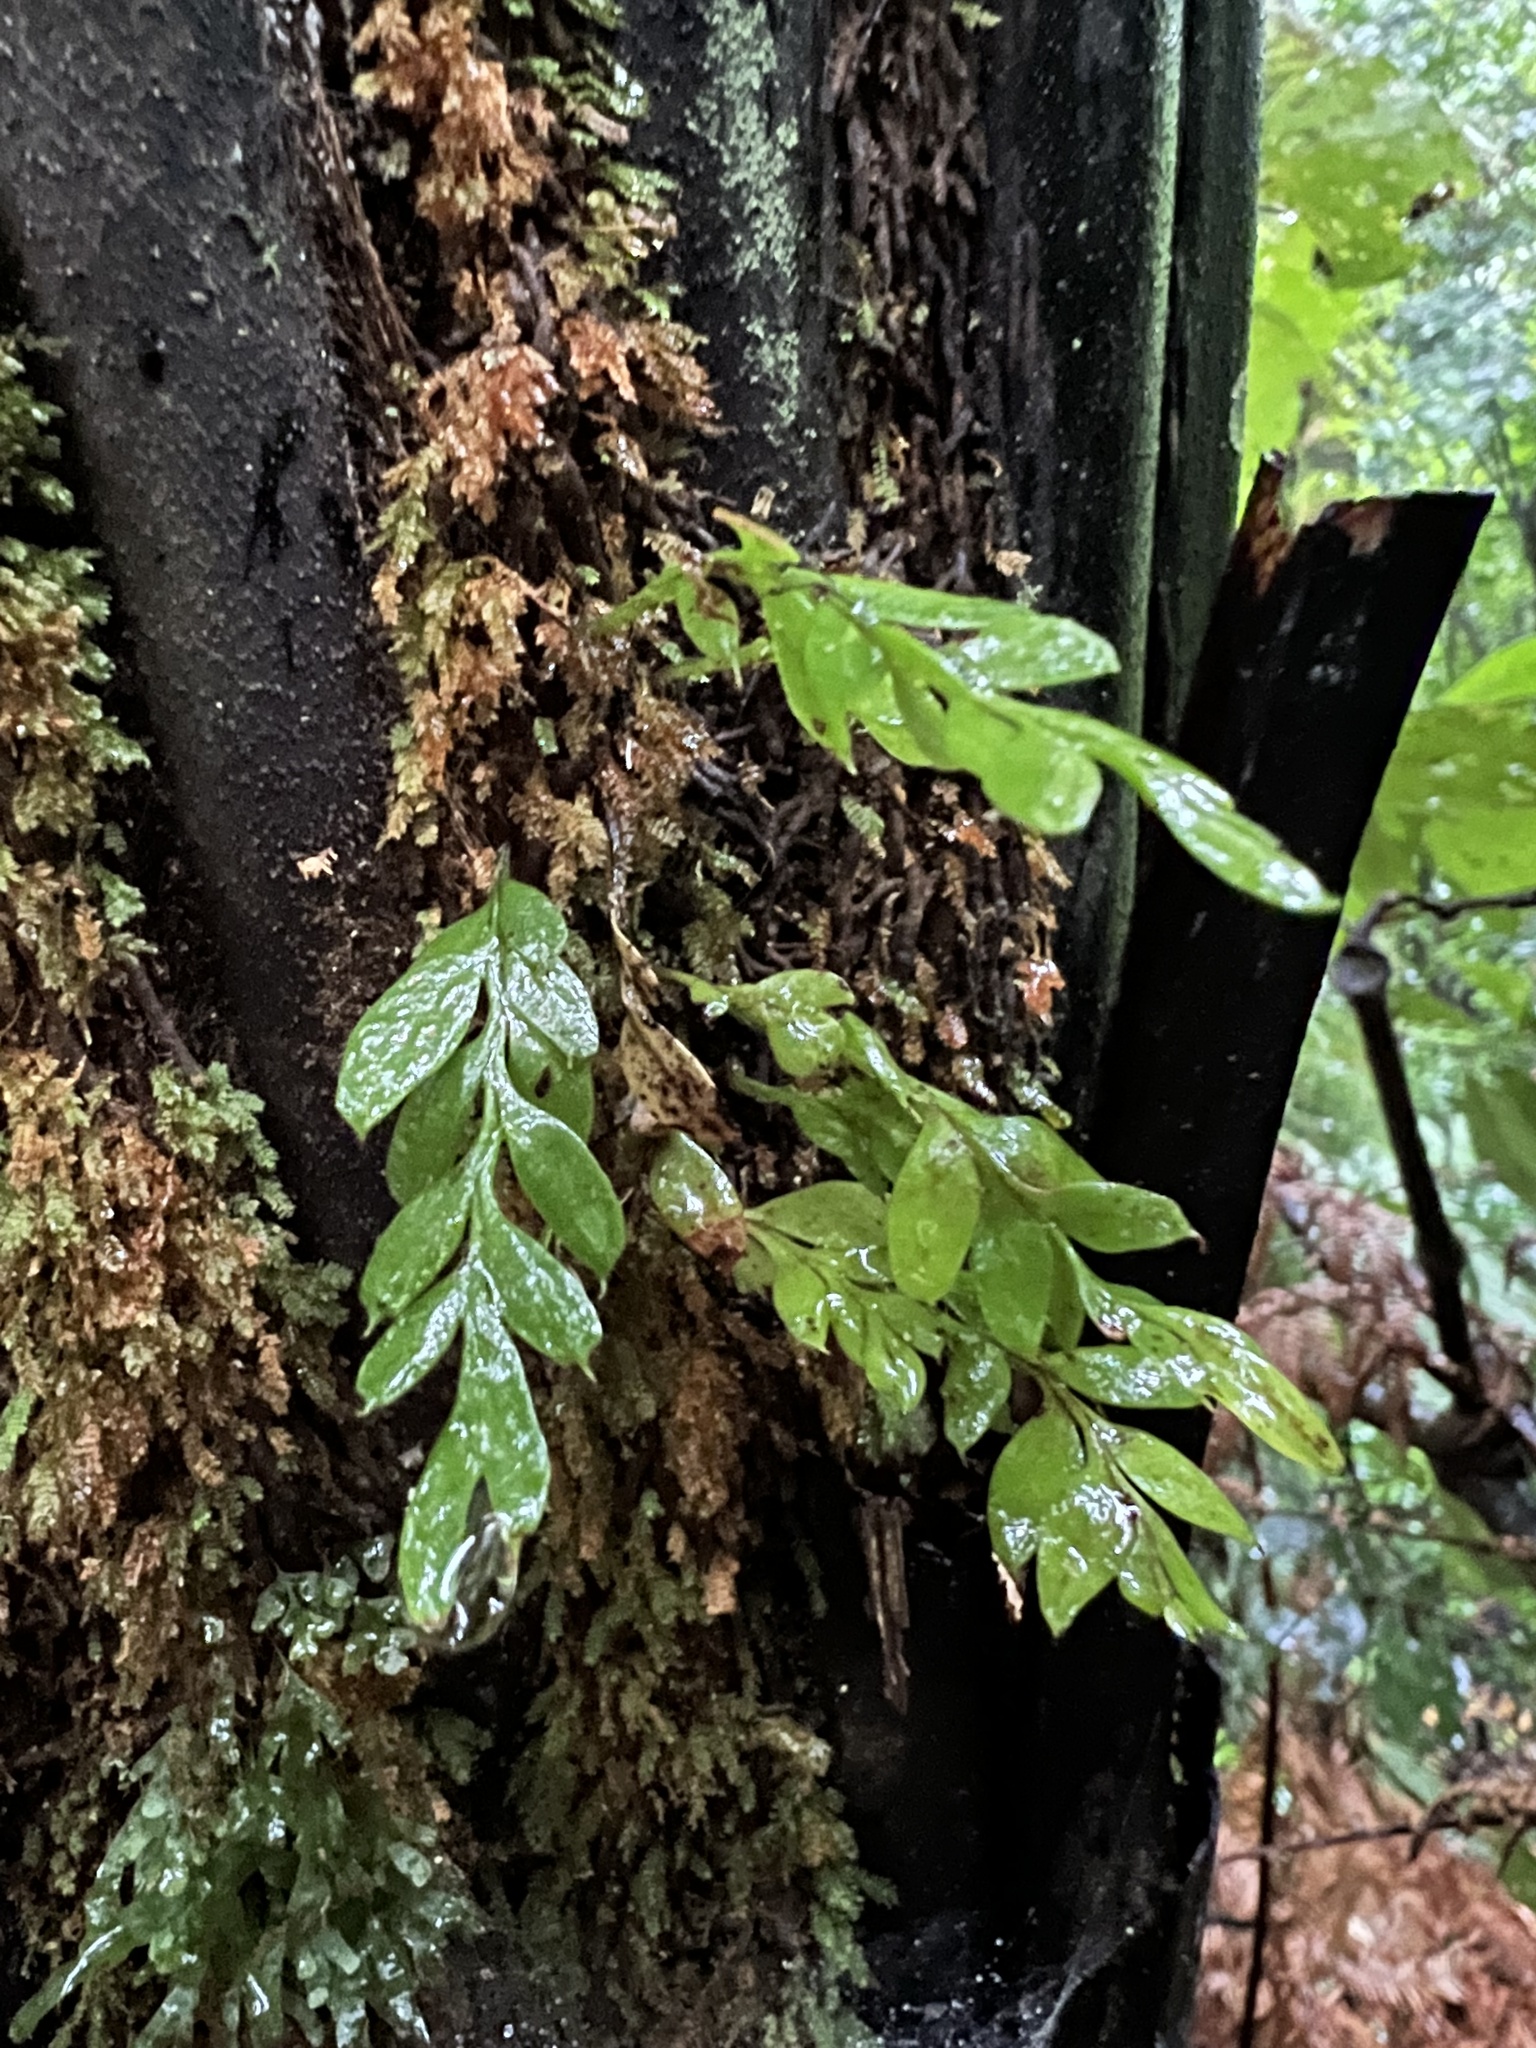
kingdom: Plantae
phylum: Tracheophyta
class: Polypodiopsida
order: Psilotales
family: Psilotaceae
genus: Tmesipteris
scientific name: Tmesipteris lanceolata
